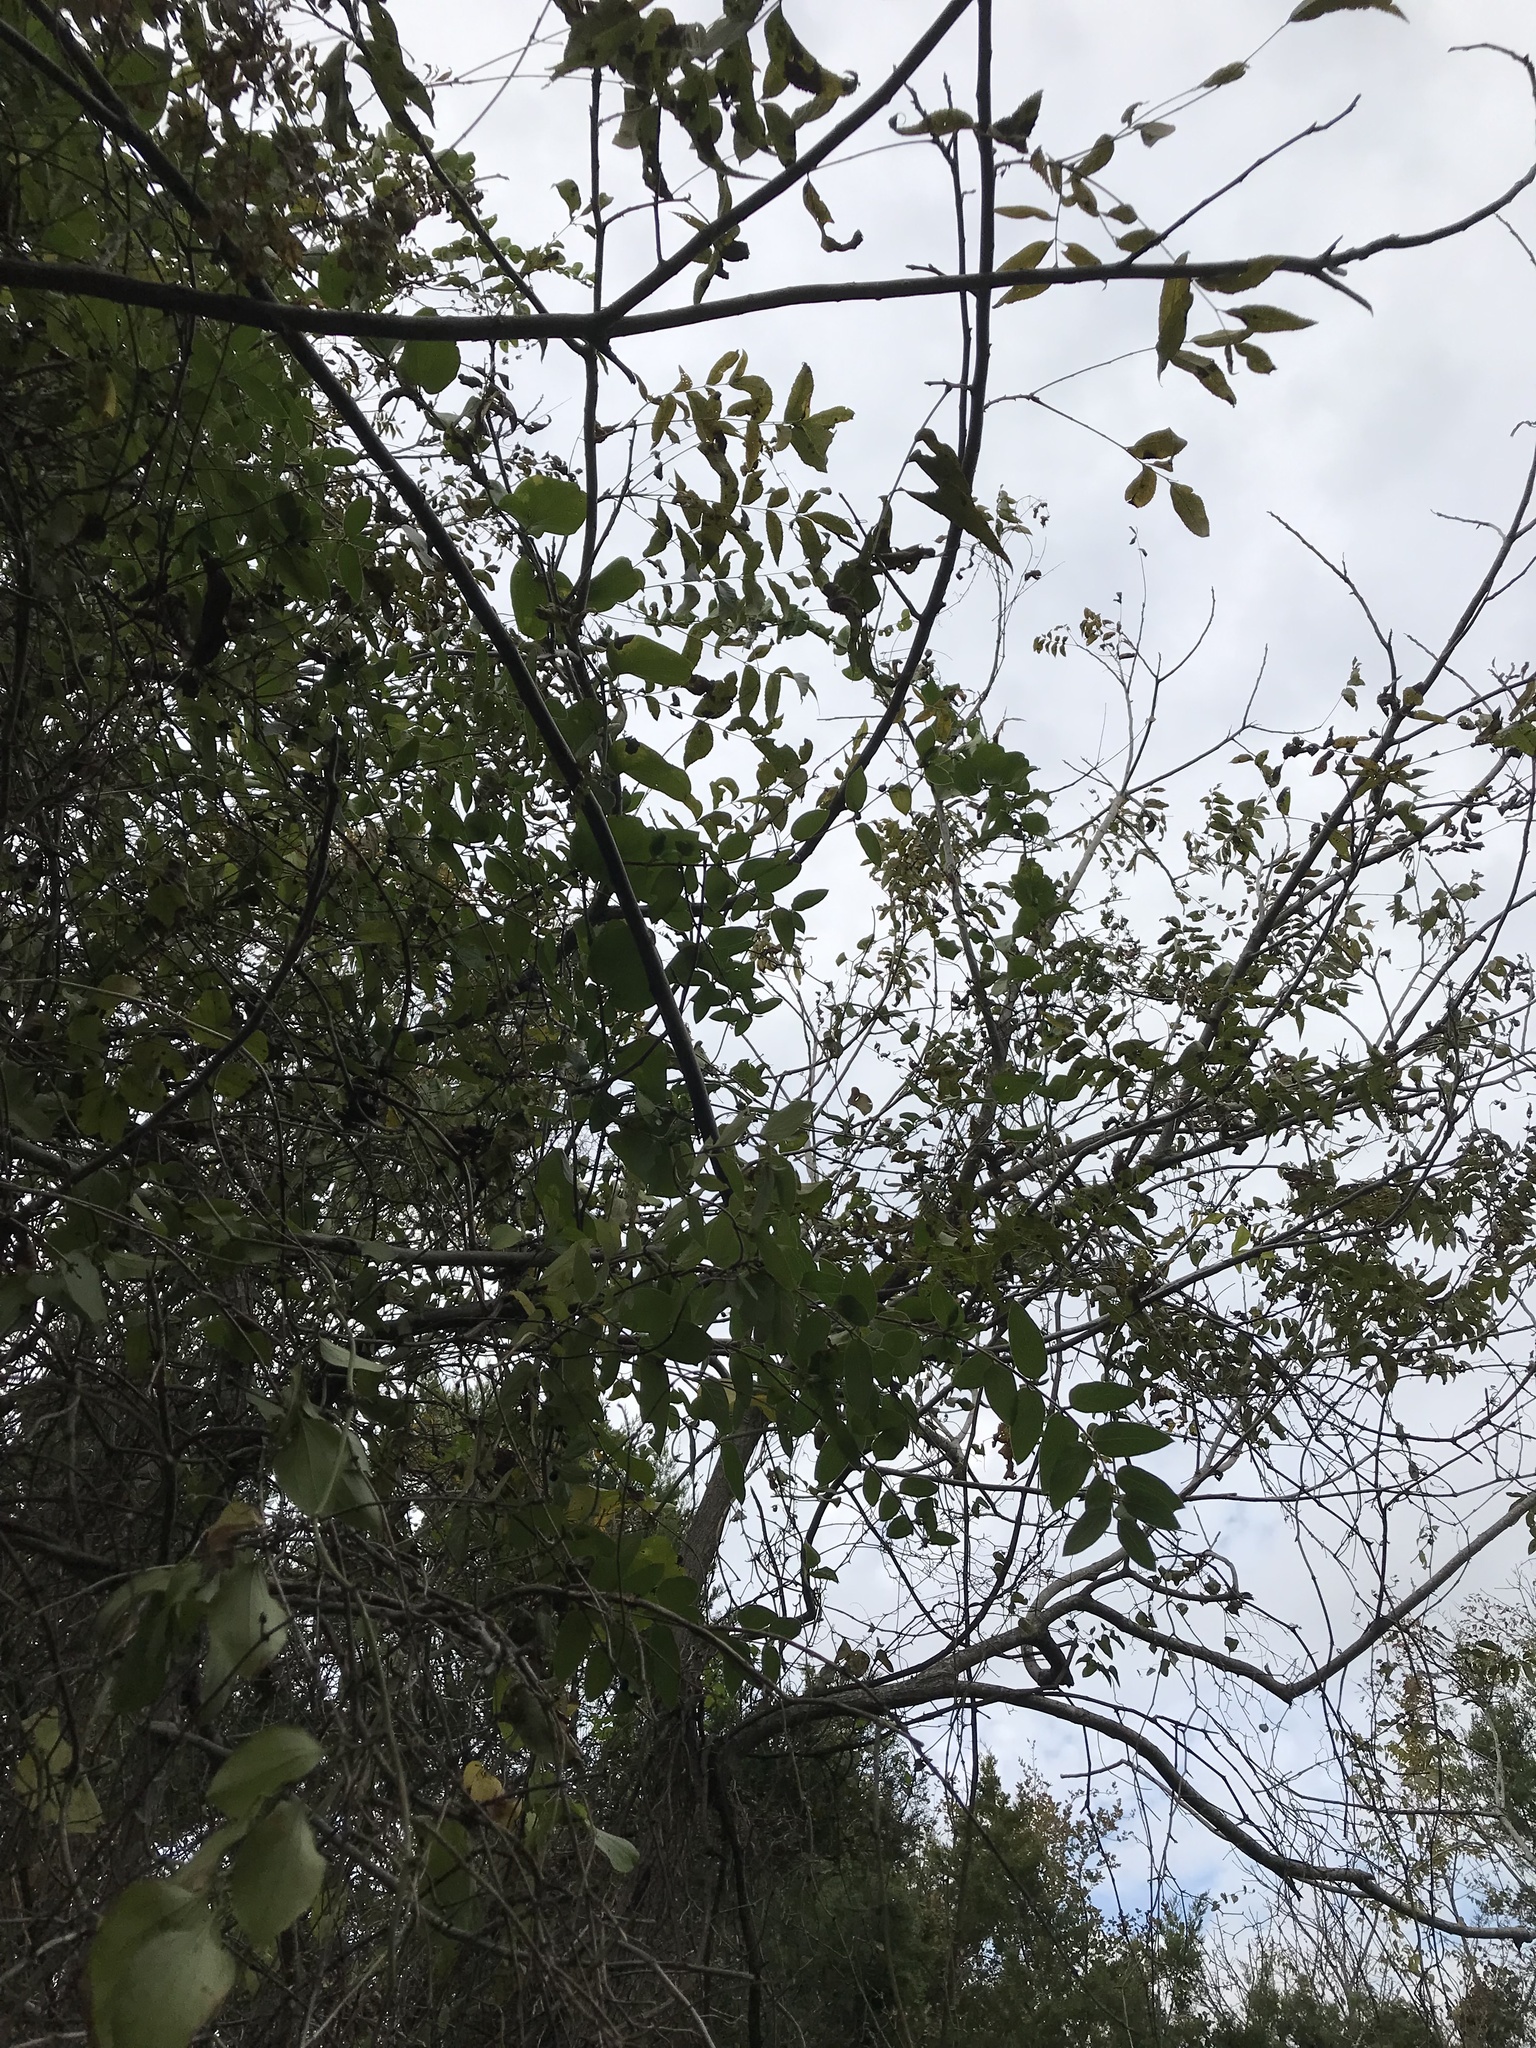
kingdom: Plantae
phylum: Tracheophyta
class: Magnoliopsida
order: Fagales
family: Juglandaceae
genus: Carya
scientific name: Carya illinoinensis
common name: Pecan
